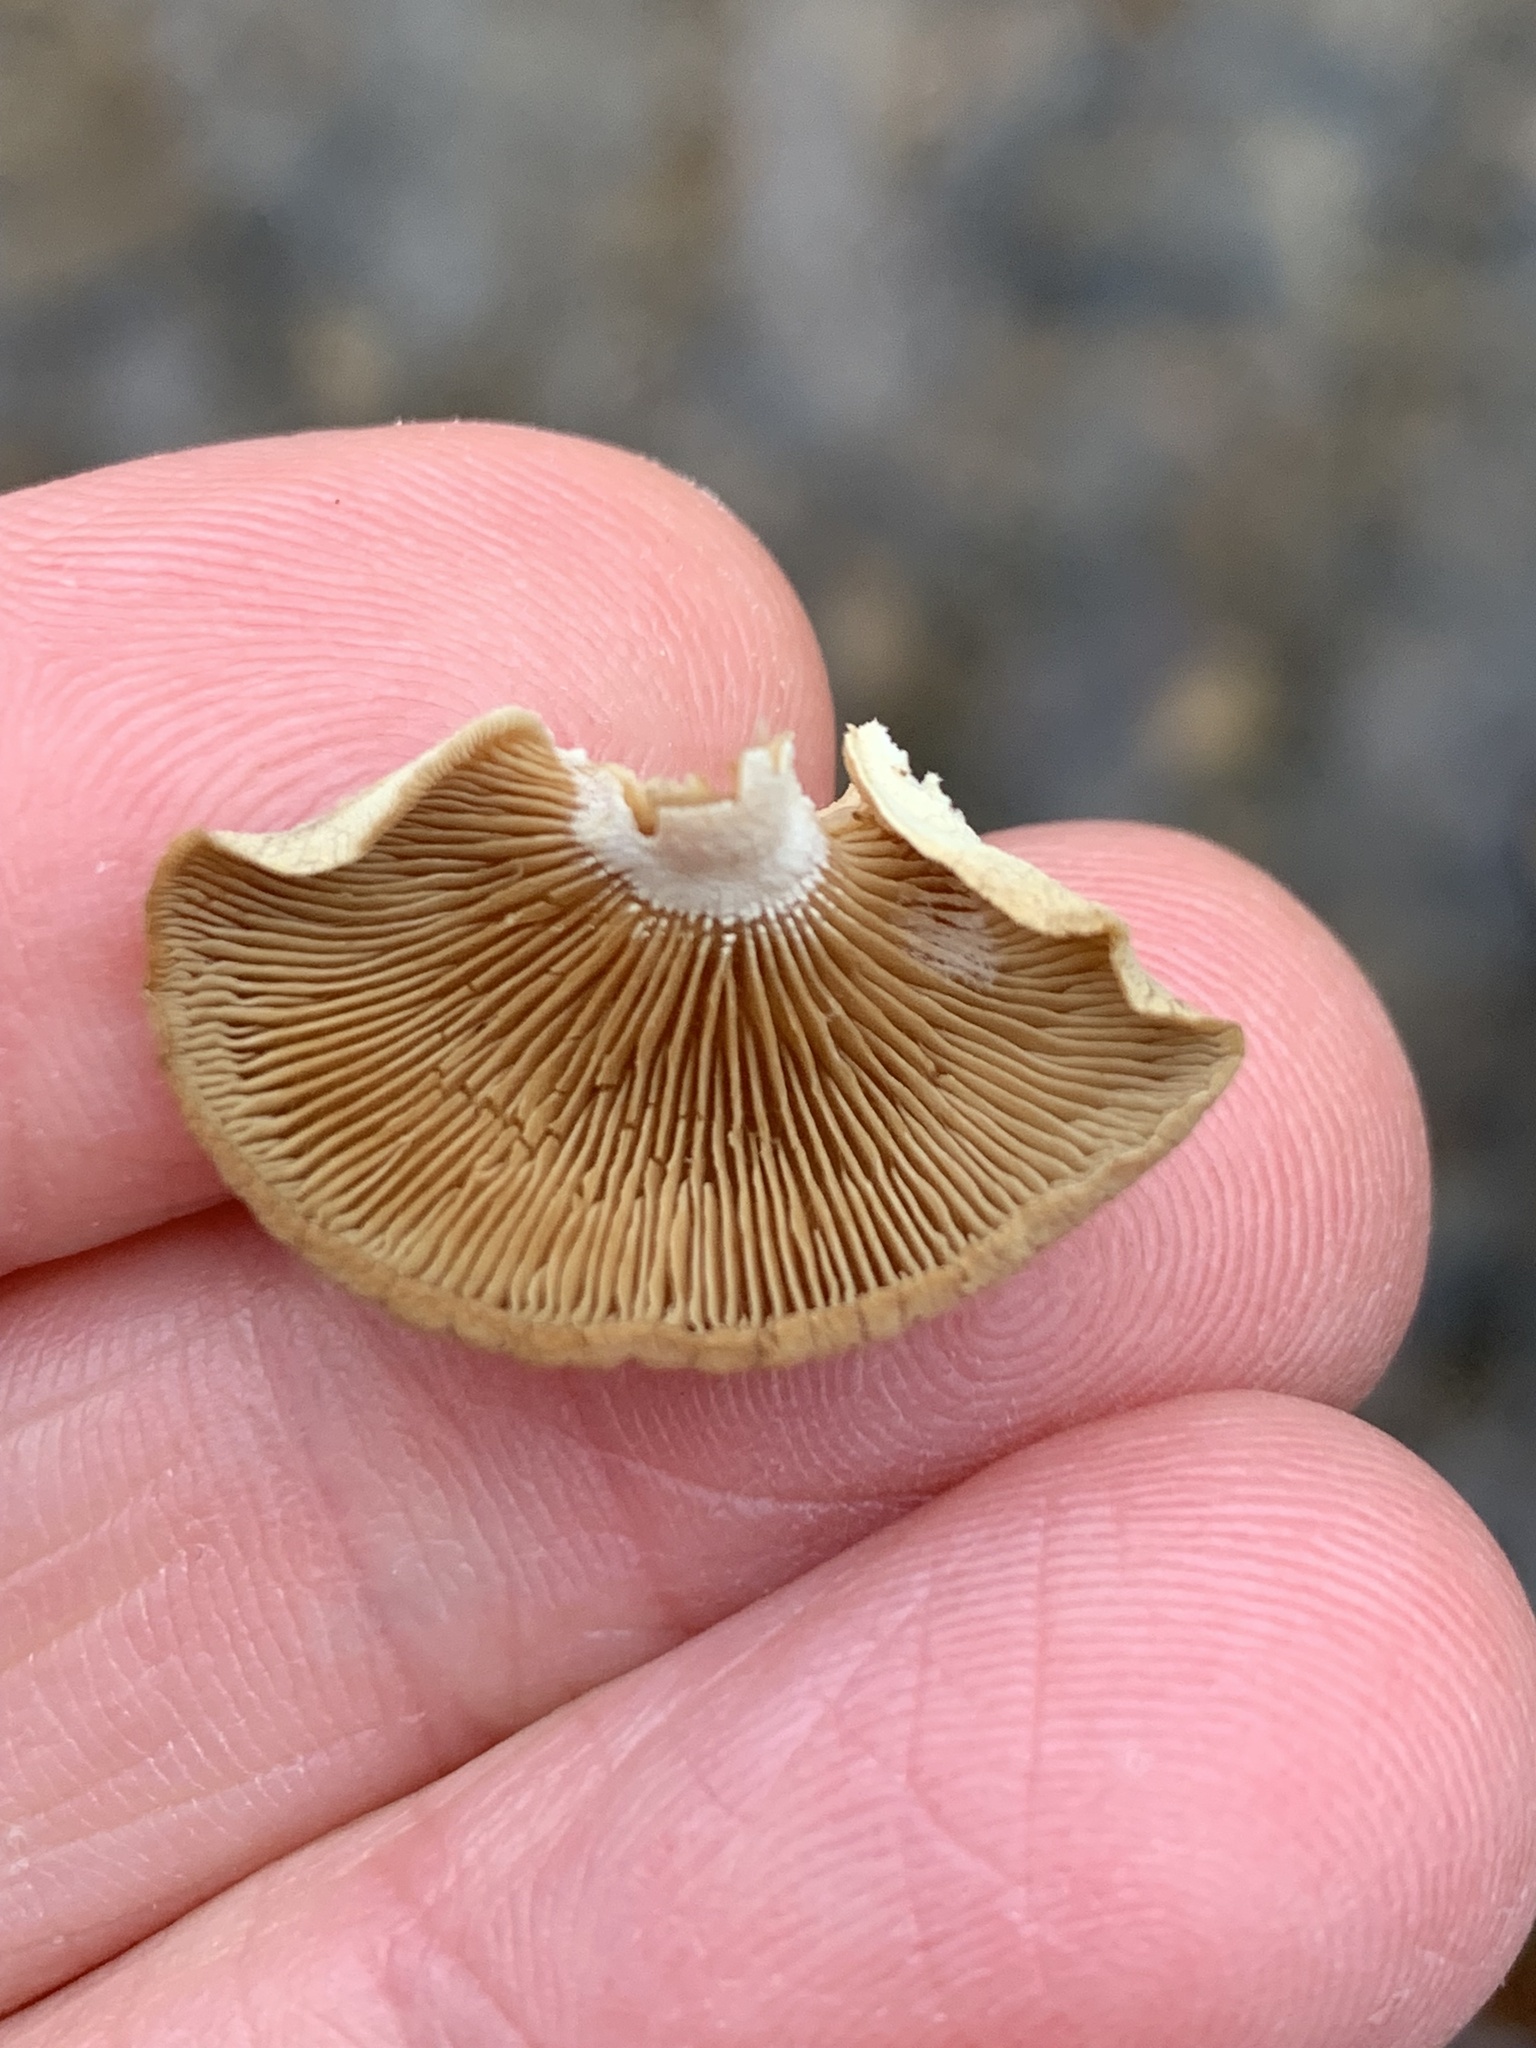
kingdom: Fungi
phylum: Basidiomycota
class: Agaricomycetes
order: Agaricales
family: Mycenaceae
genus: Panellus
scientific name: Panellus stipticus
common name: Bitter oysterling
